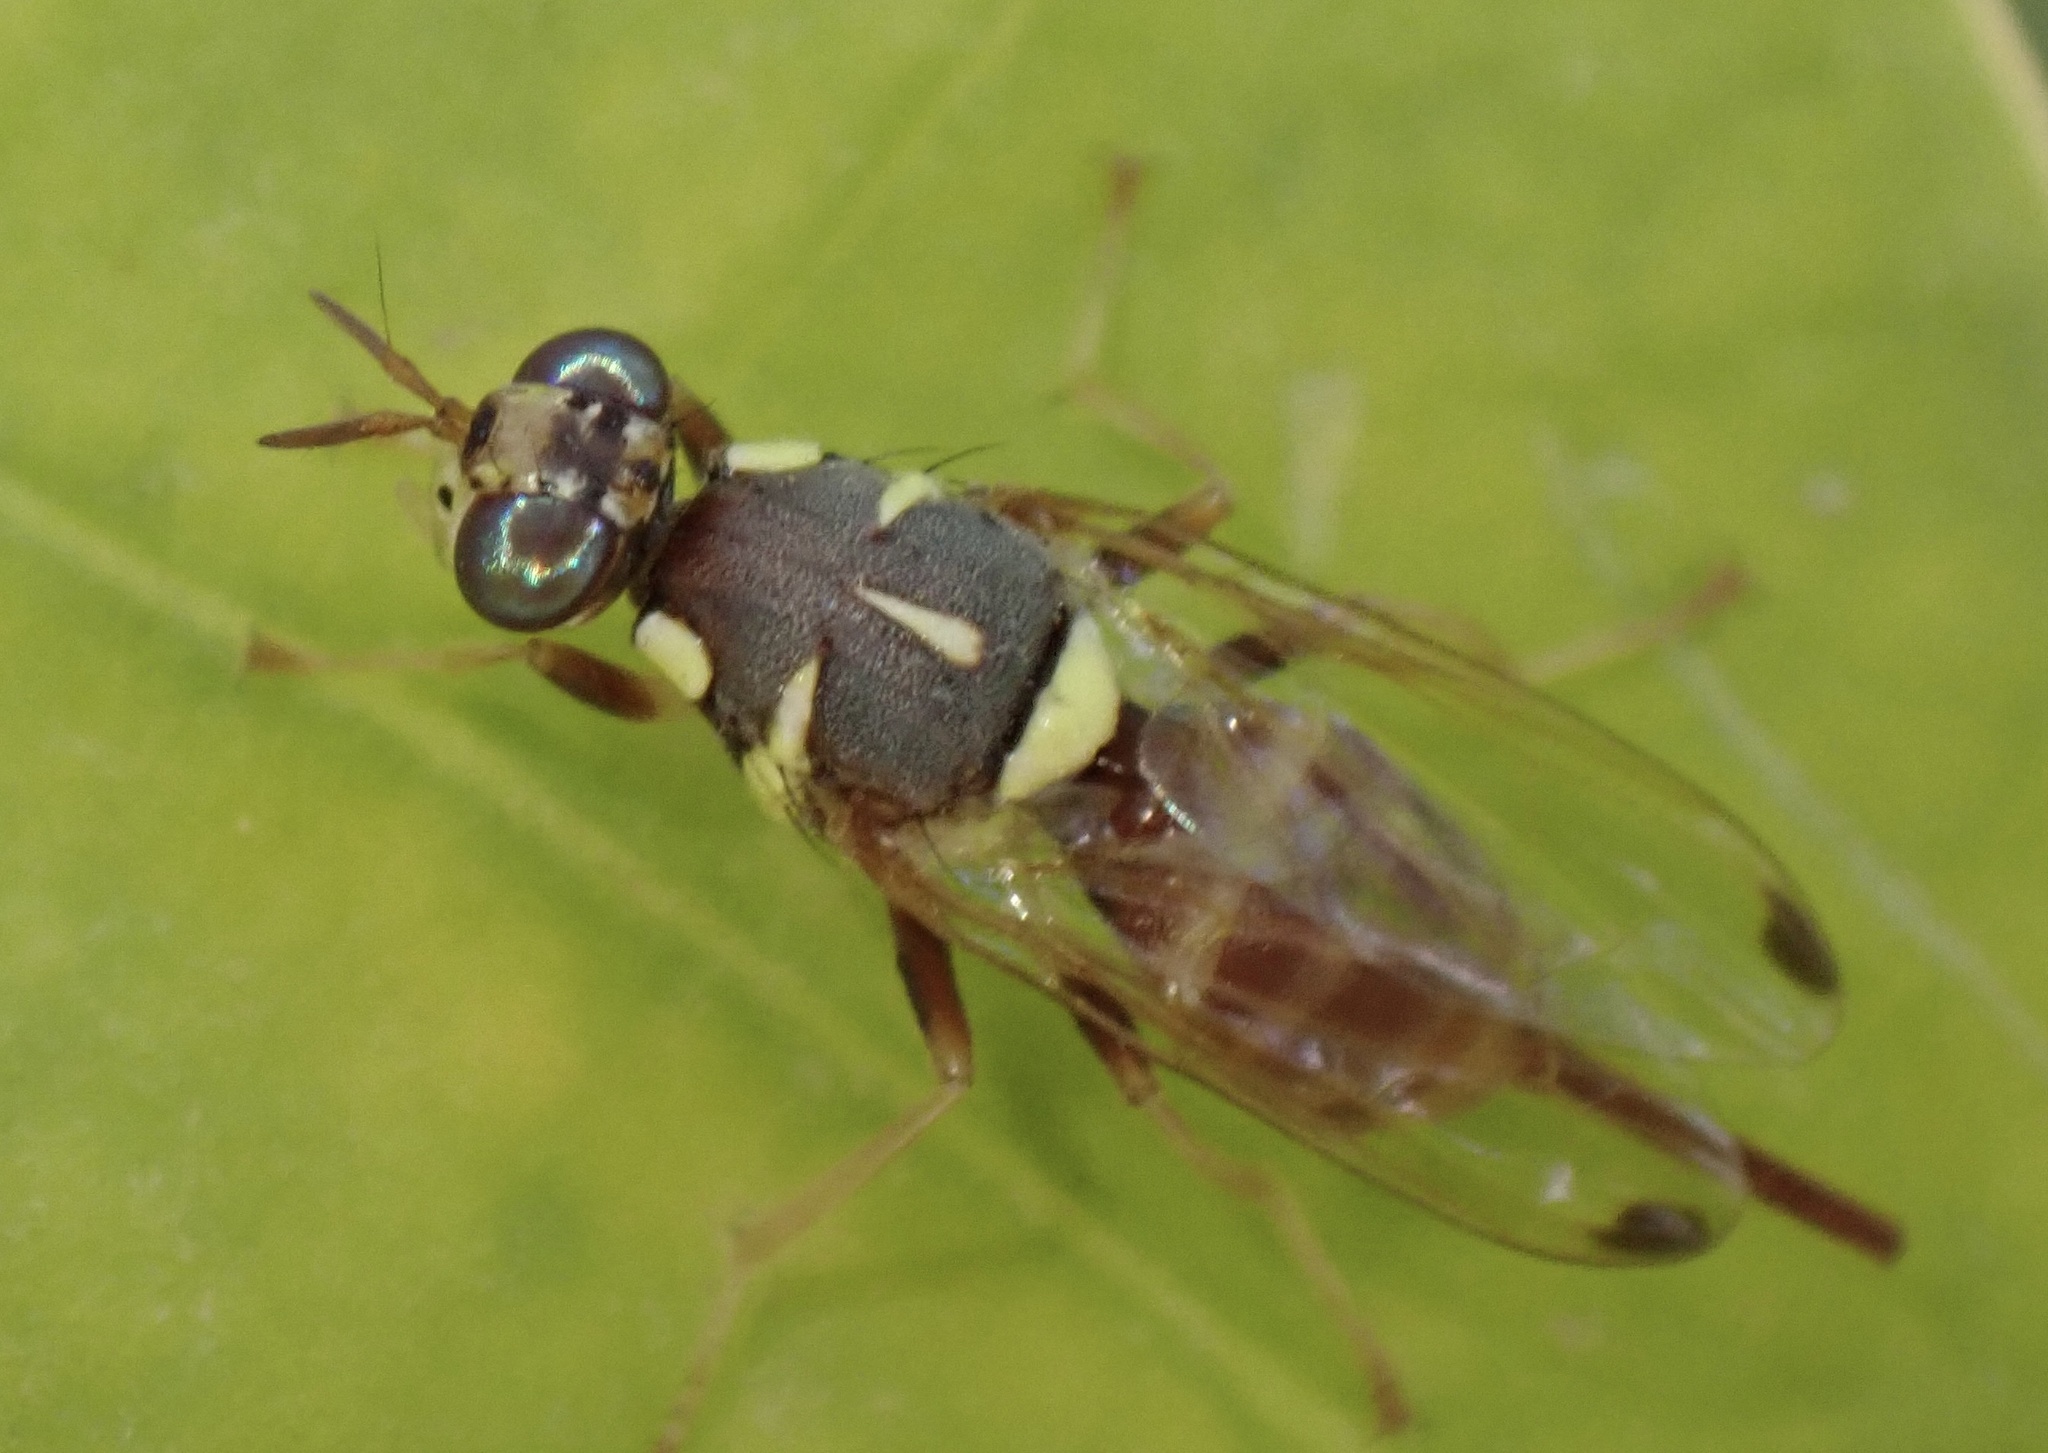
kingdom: Animalia
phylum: Arthropoda
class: Insecta
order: Diptera
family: Tephritidae
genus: Dacus
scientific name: Dacus longistylus
